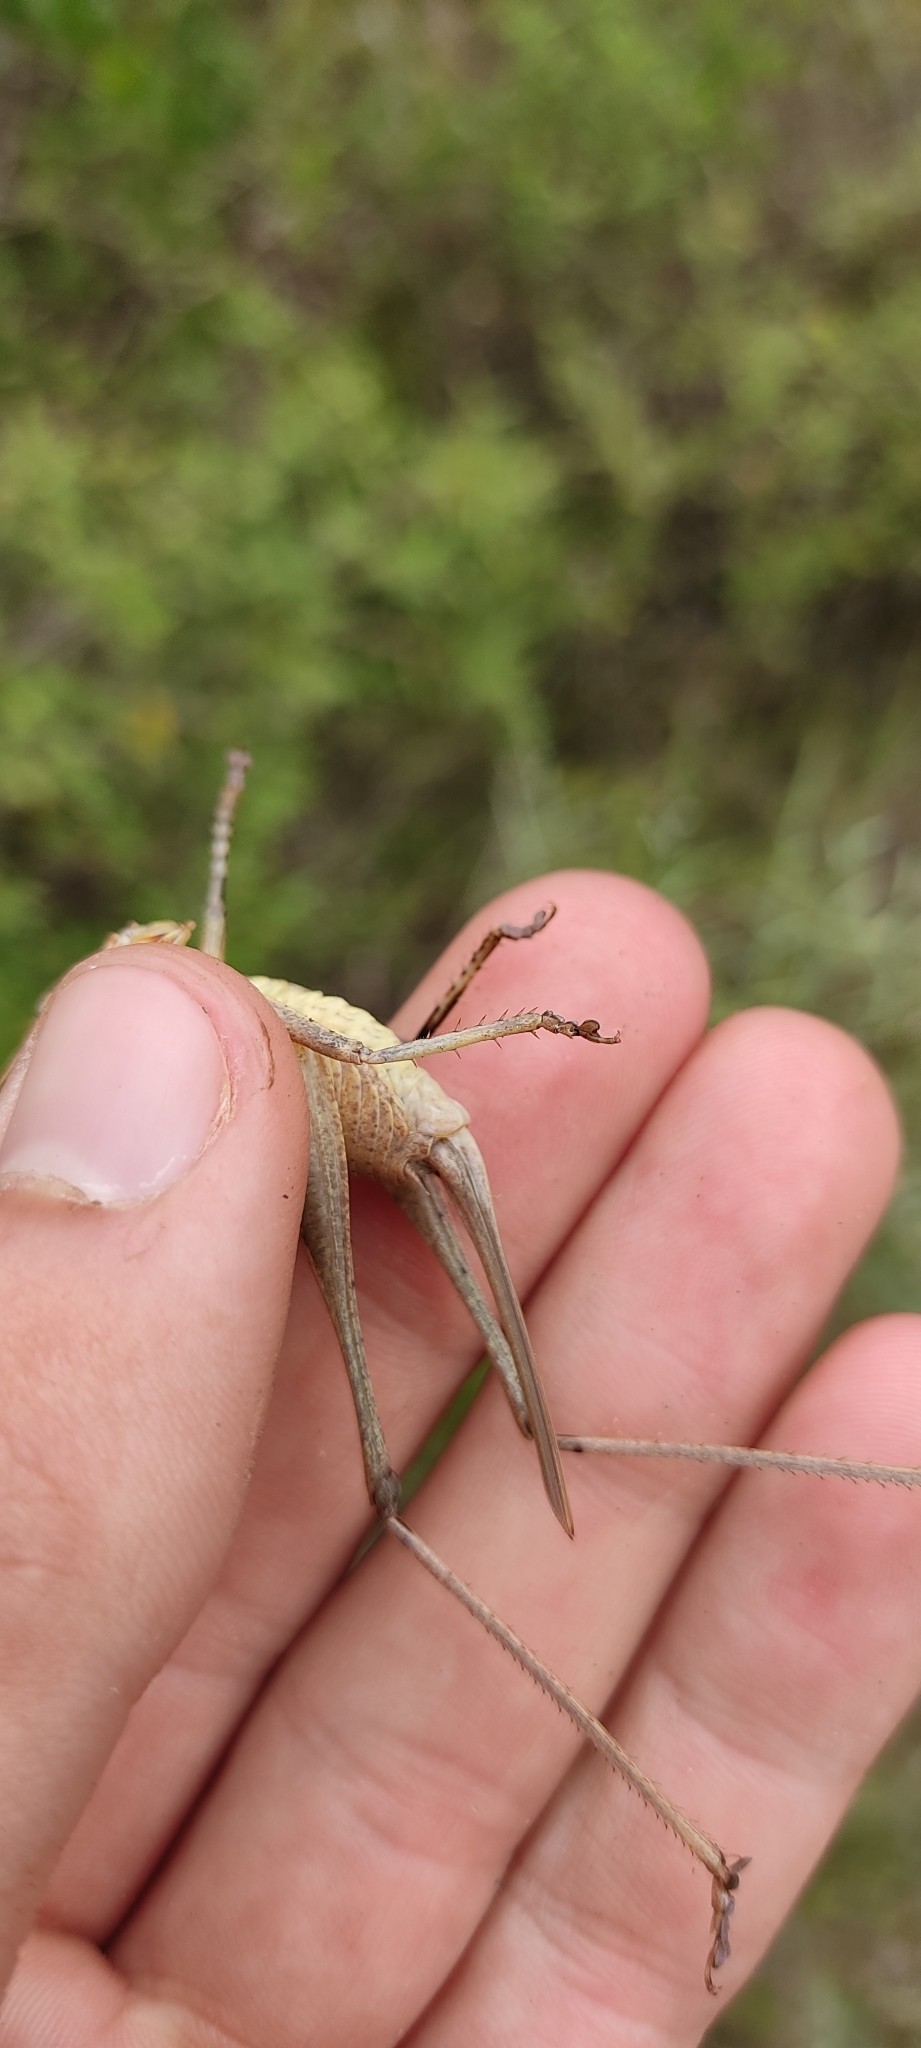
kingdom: Animalia
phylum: Arthropoda
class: Insecta
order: Orthoptera
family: Tettigoniidae
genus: Thyreonotus
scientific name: Thyreonotus corsicus
